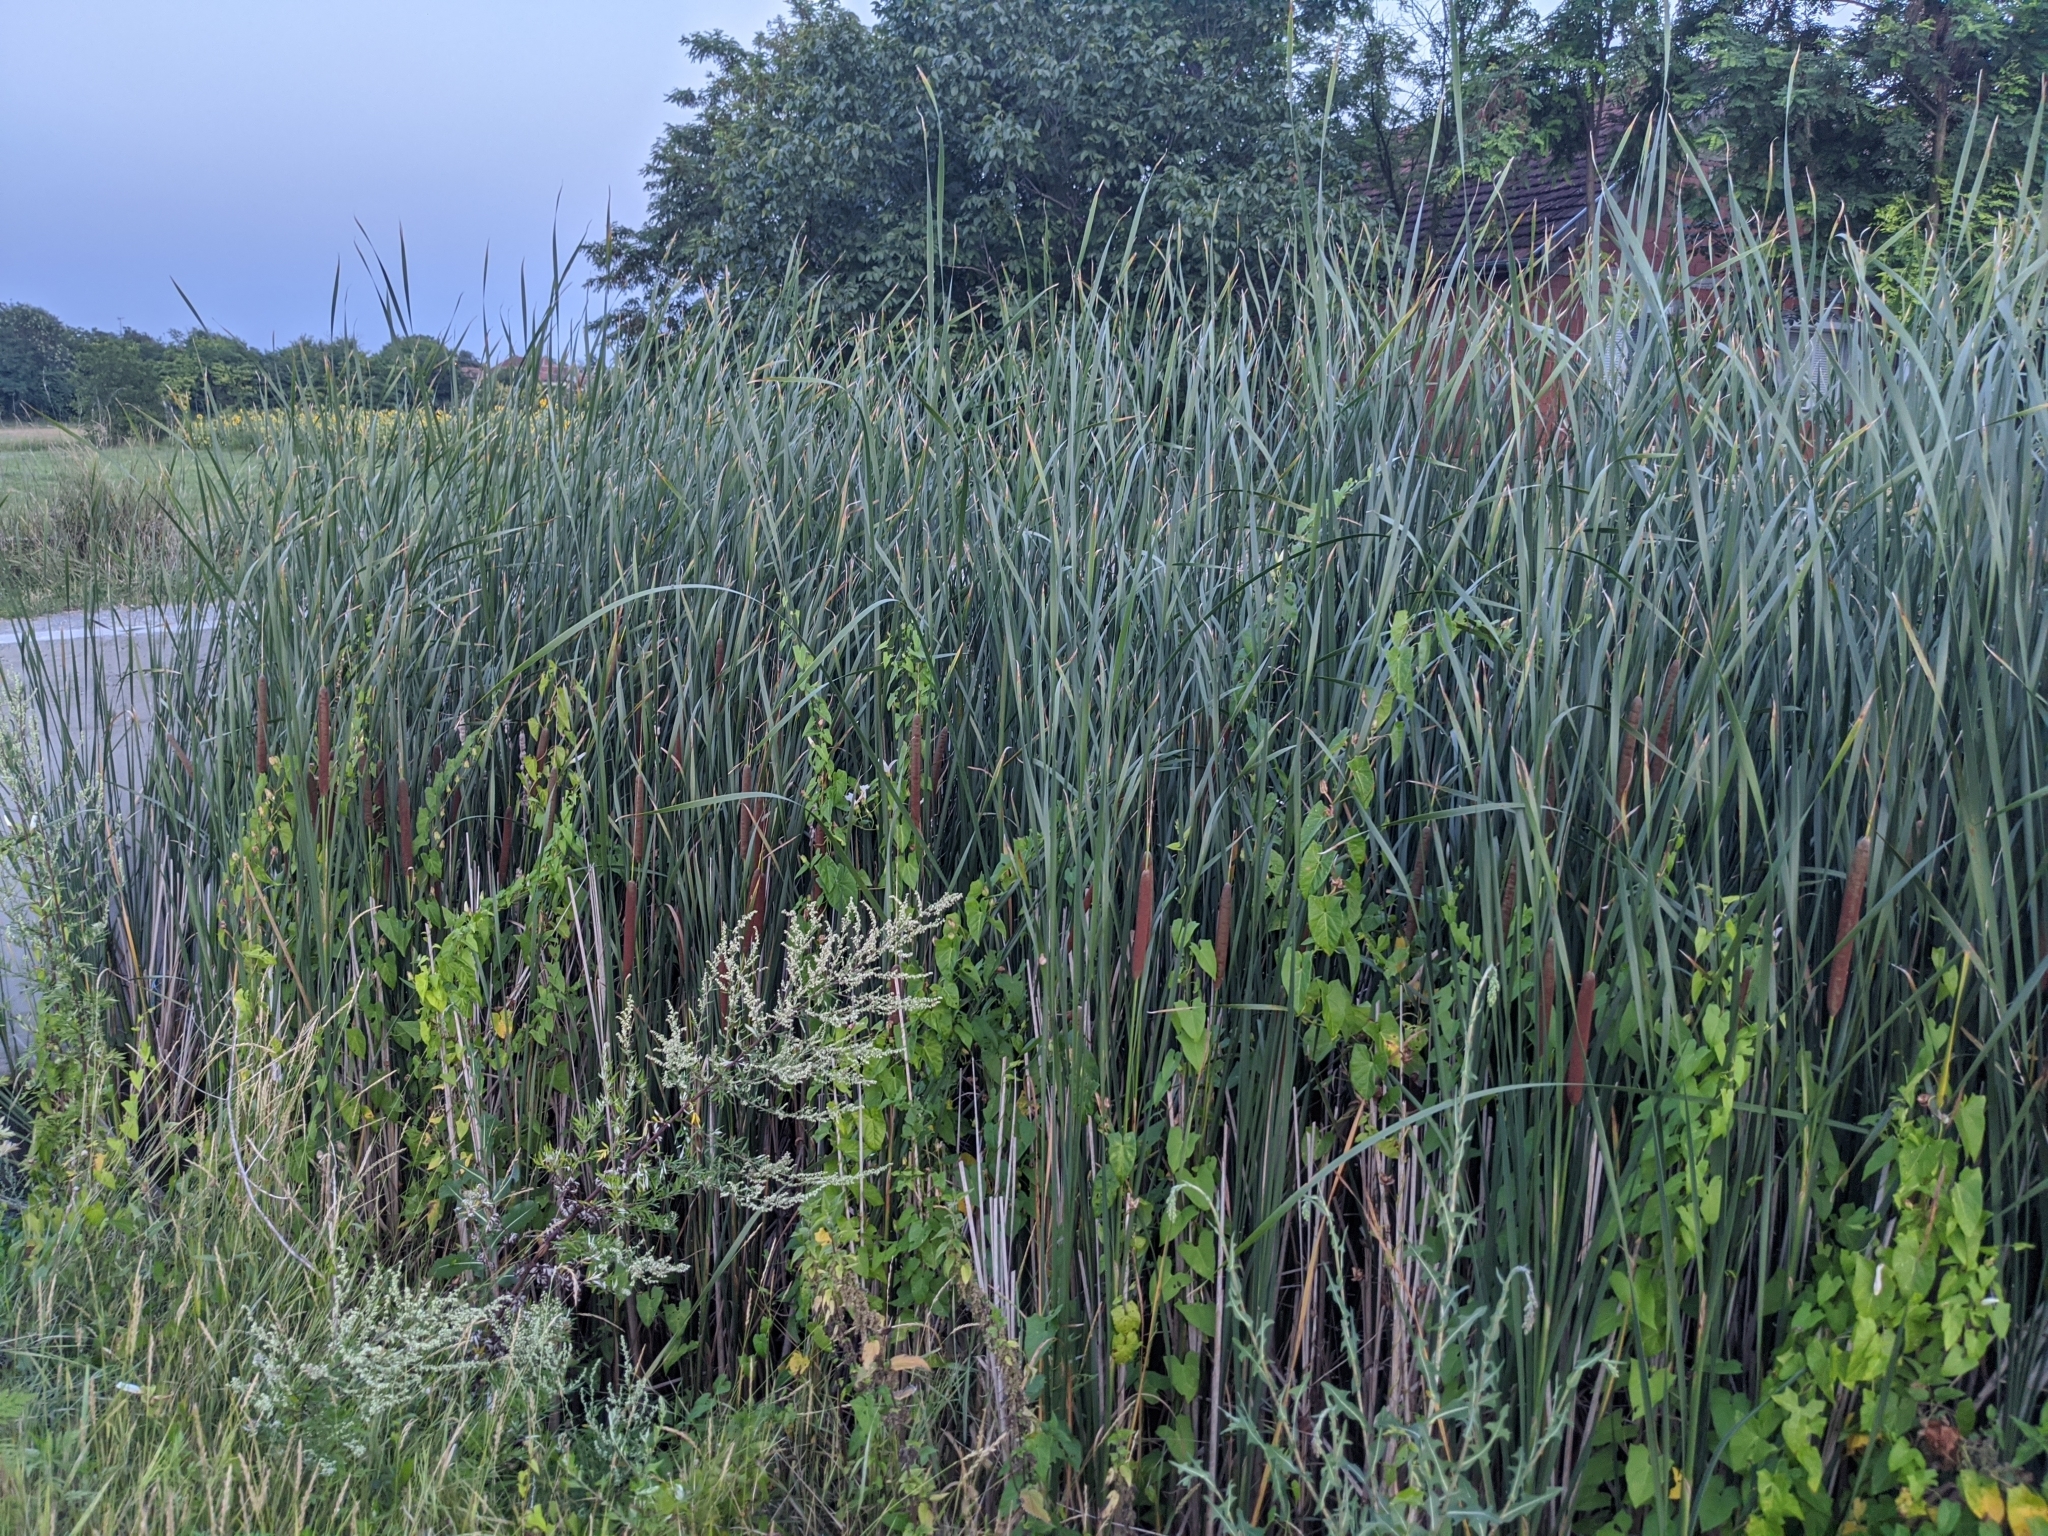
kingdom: Plantae
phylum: Tracheophyta
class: Liliopsida
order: Poales
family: Typhaceae
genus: Typha
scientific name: Typha angustifolia
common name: Lesser bulrush
